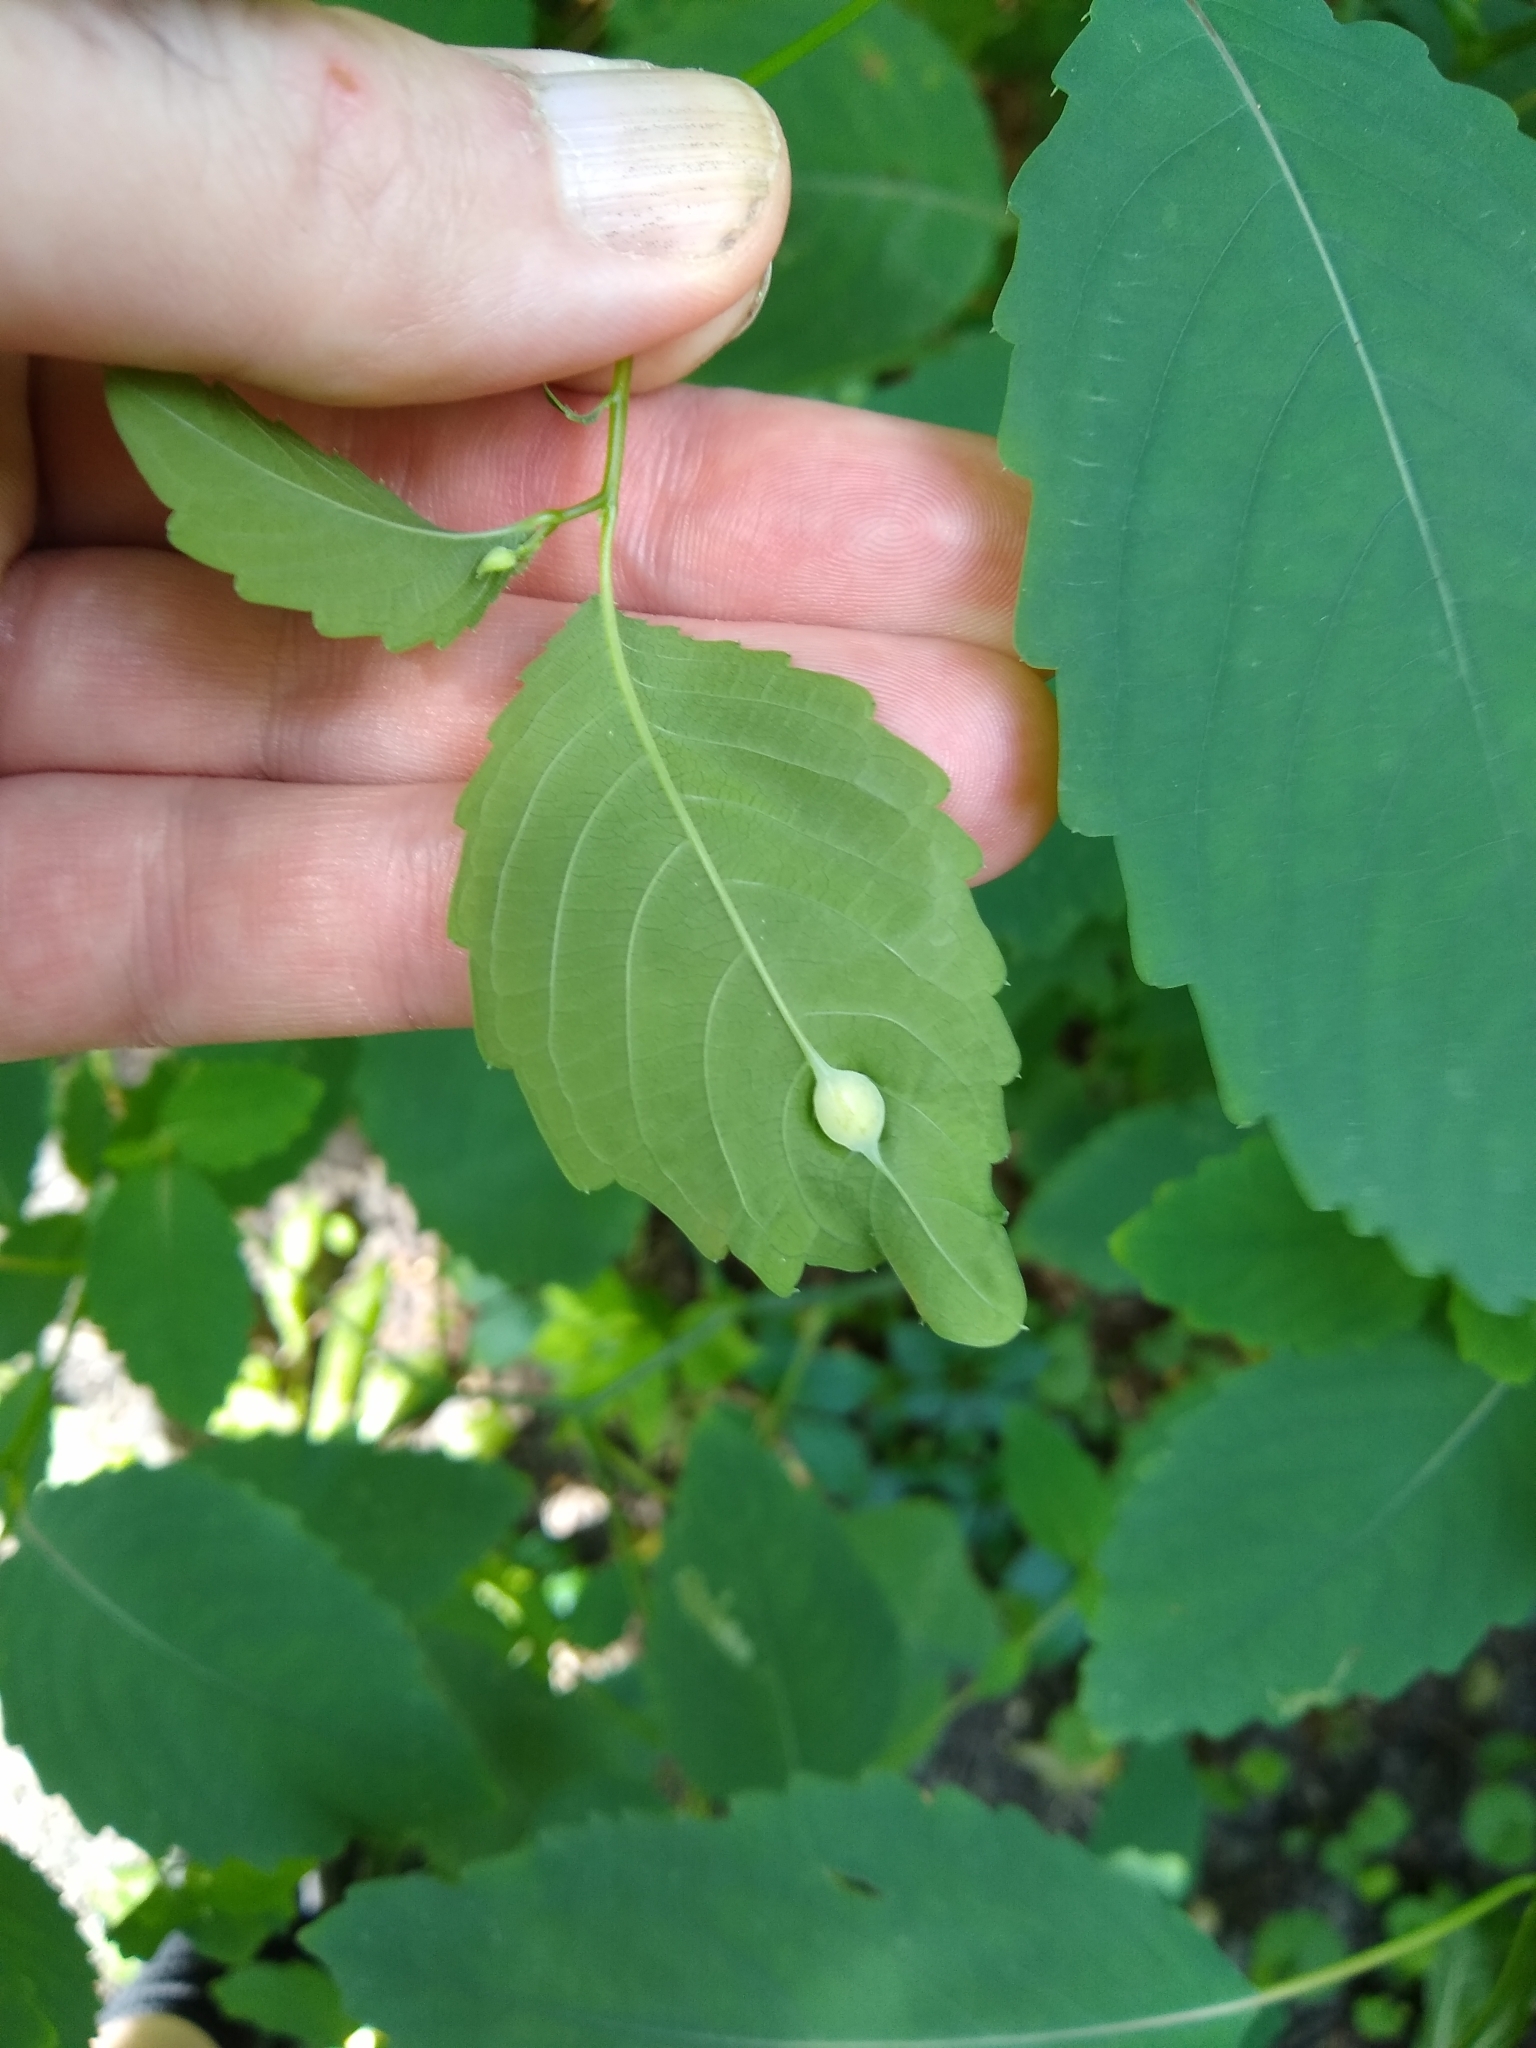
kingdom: Animalia
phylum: Arthropoda
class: Insecta
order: Diptera
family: Cecidomyiidae
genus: Neolasioptera
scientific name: Neolasioptera impatientifolia
